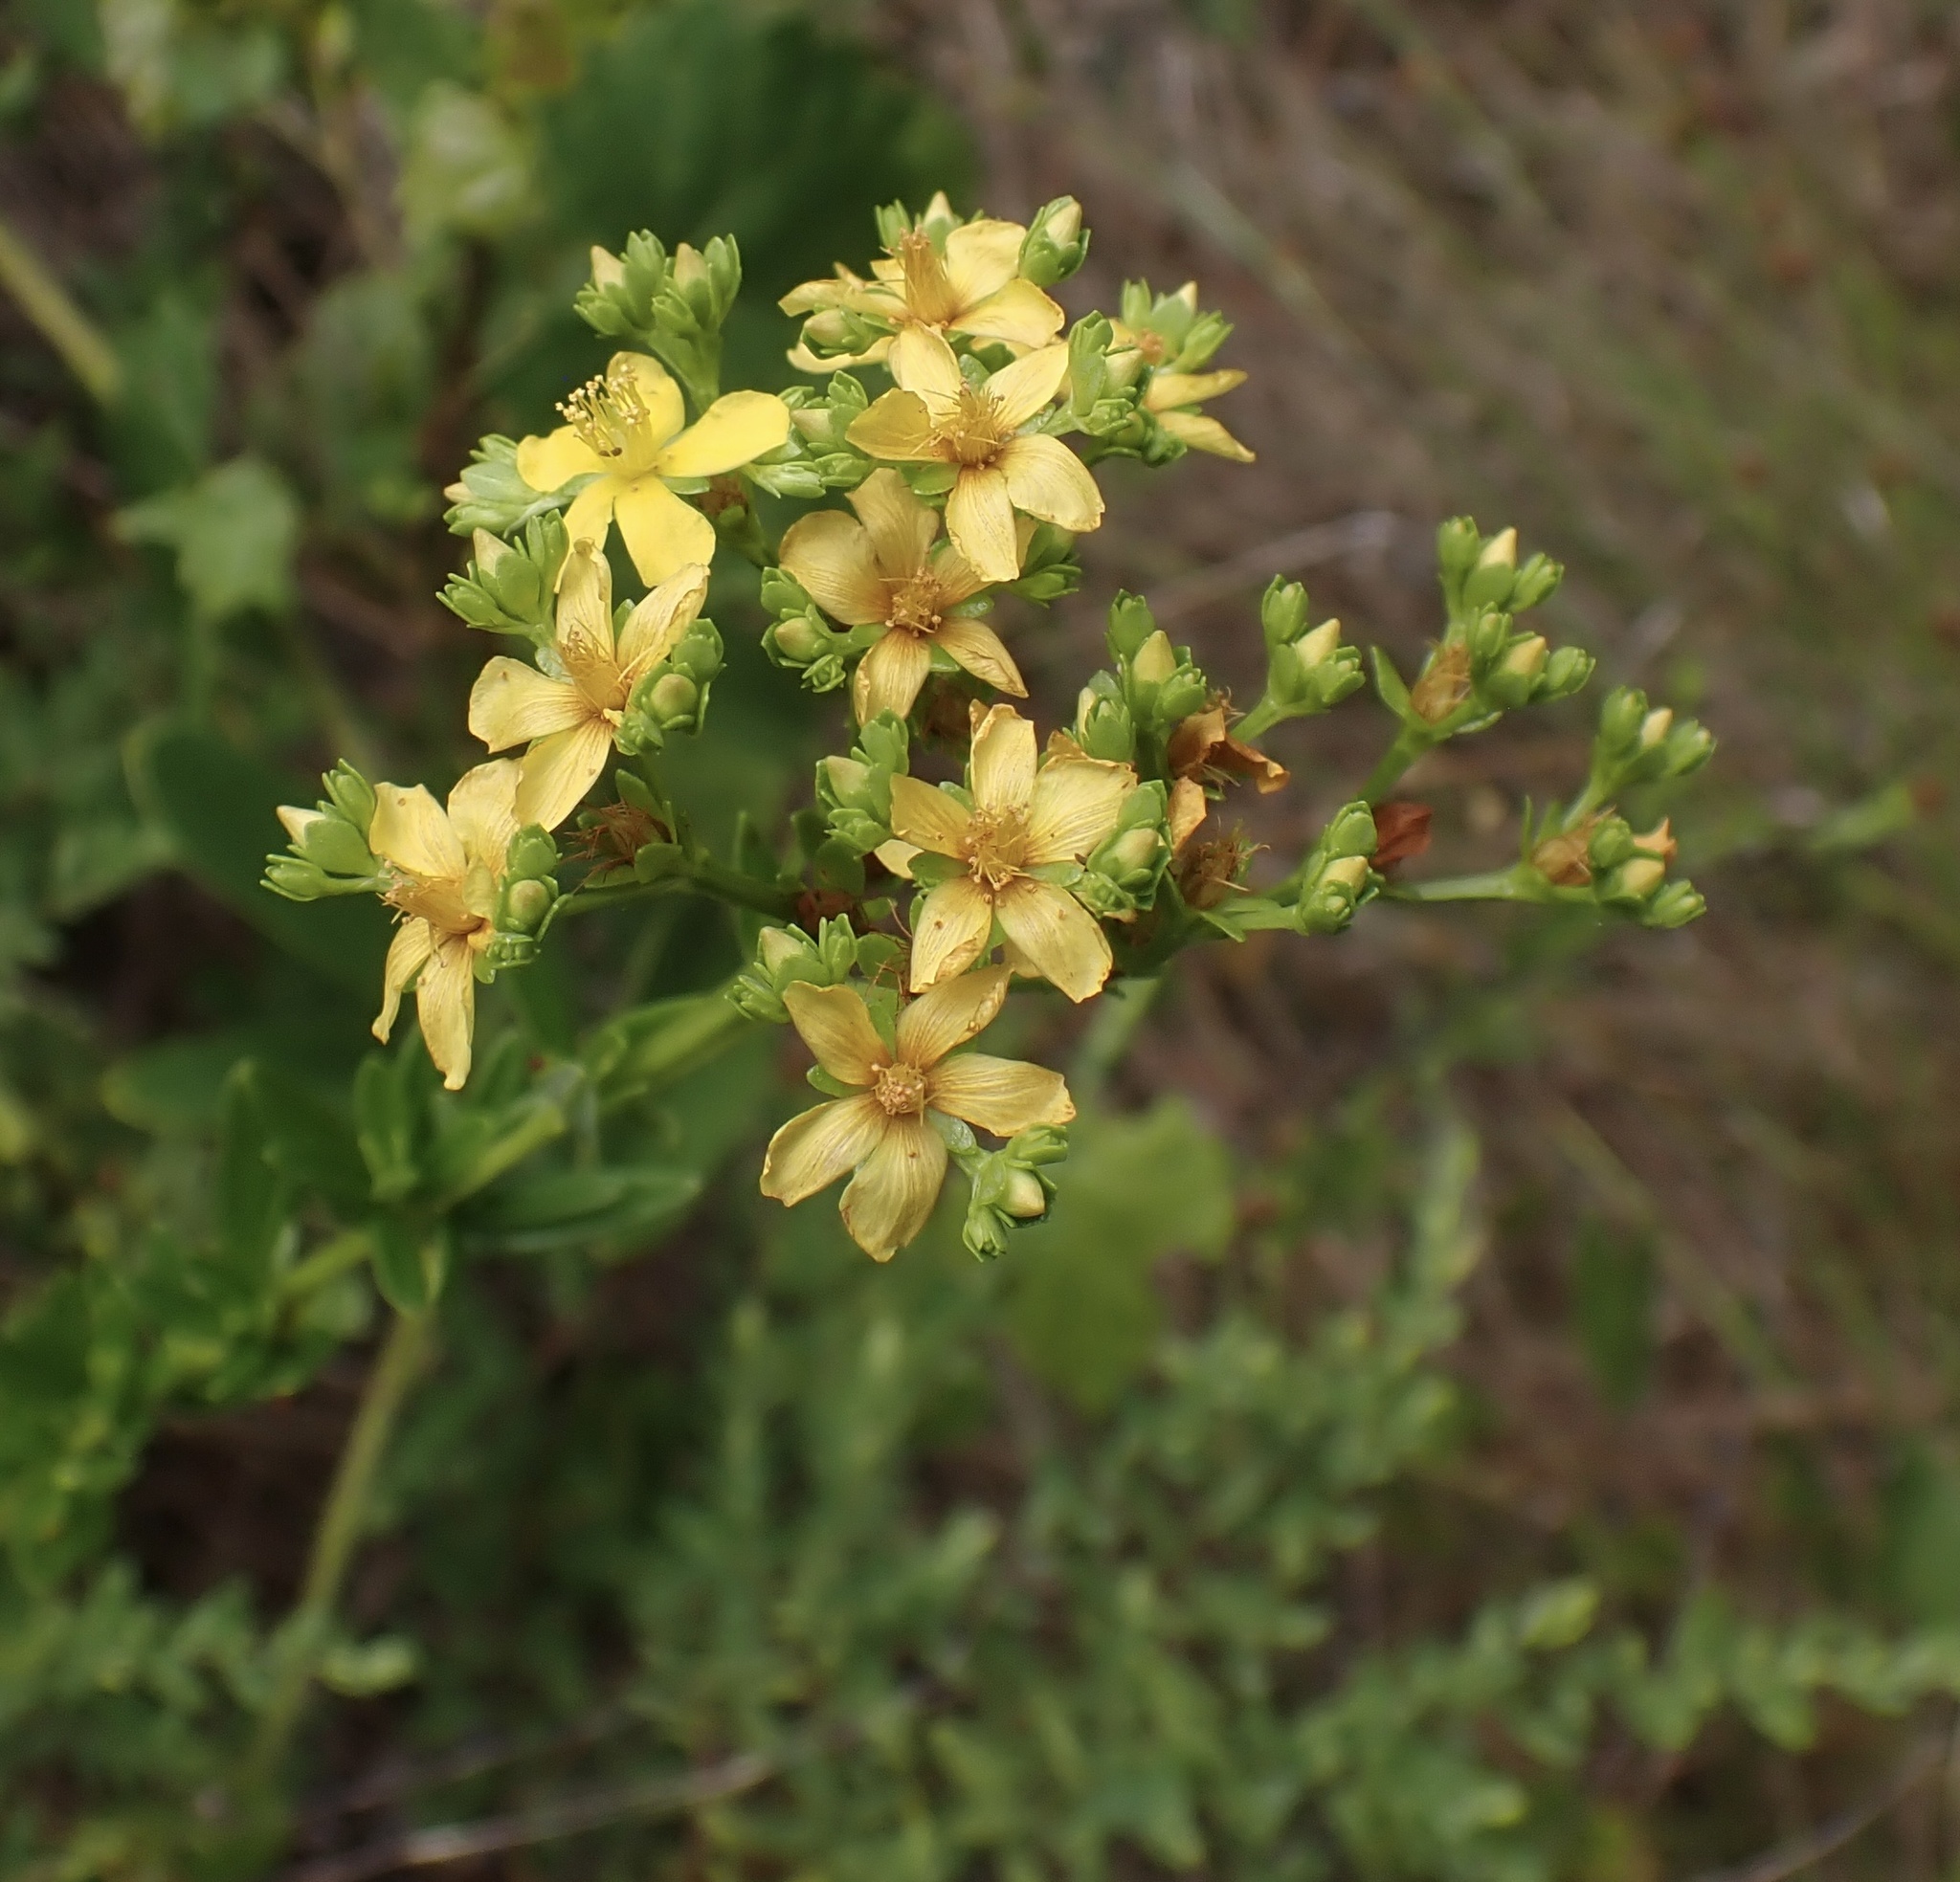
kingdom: Plantae
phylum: Tracheophyta
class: Magnoliopsida
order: Malpighiales
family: Hypericaceae
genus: Hypericum
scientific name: Hypericum cistifolium
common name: Round-pod st. john's-wort
